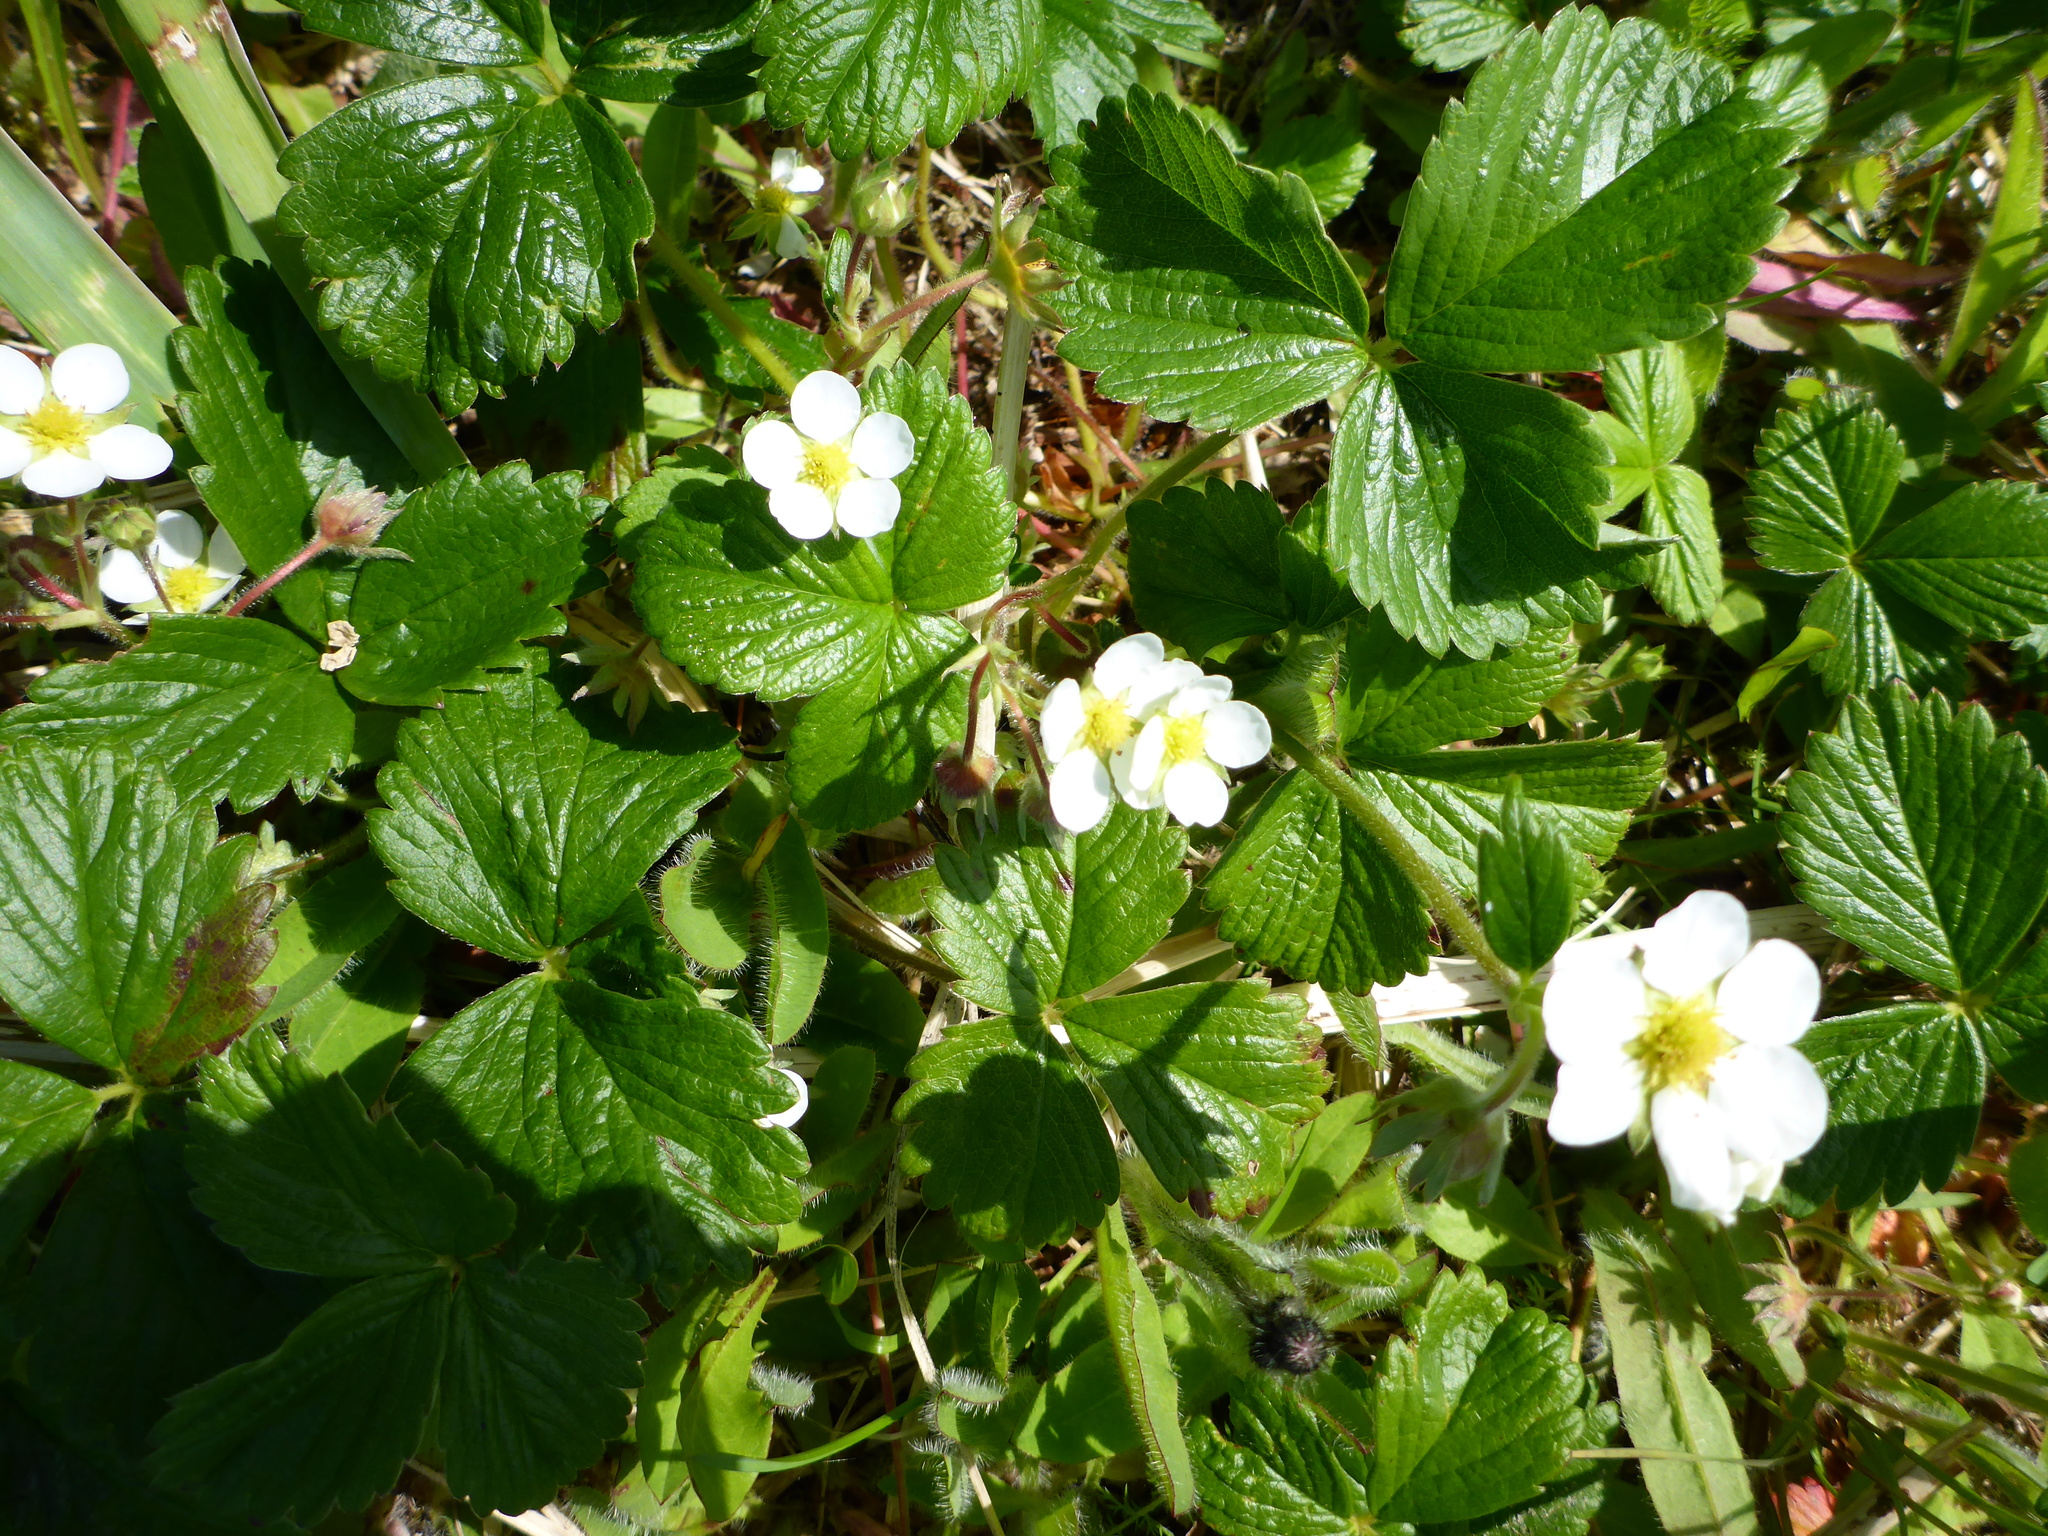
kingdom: Plantae
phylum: Tracheophyta
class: Magnoliopsida
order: Rosales
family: Rosaceae
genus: Fragaria
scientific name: Fragaria chiloensis
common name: Beach strawberry
